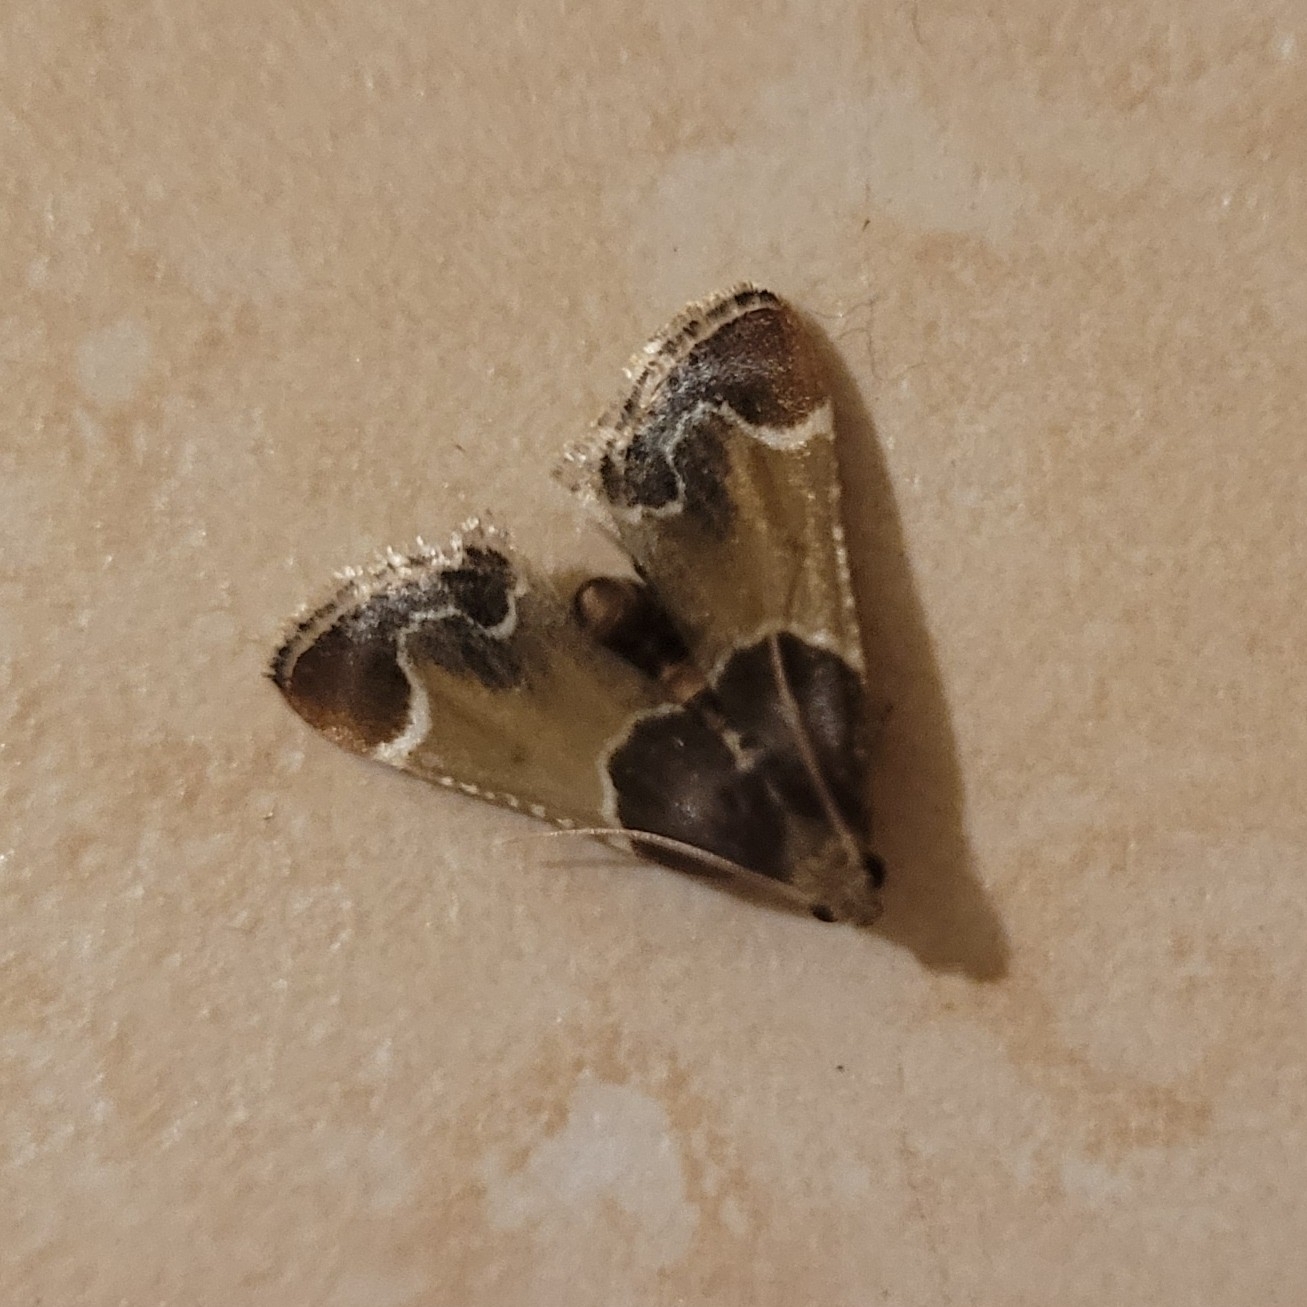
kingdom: Animalia
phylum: Arthropoda
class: Insecta
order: Lepidoptera
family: Pyralidae
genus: Pyralis
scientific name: Pyralis farinalis
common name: Meal moth
